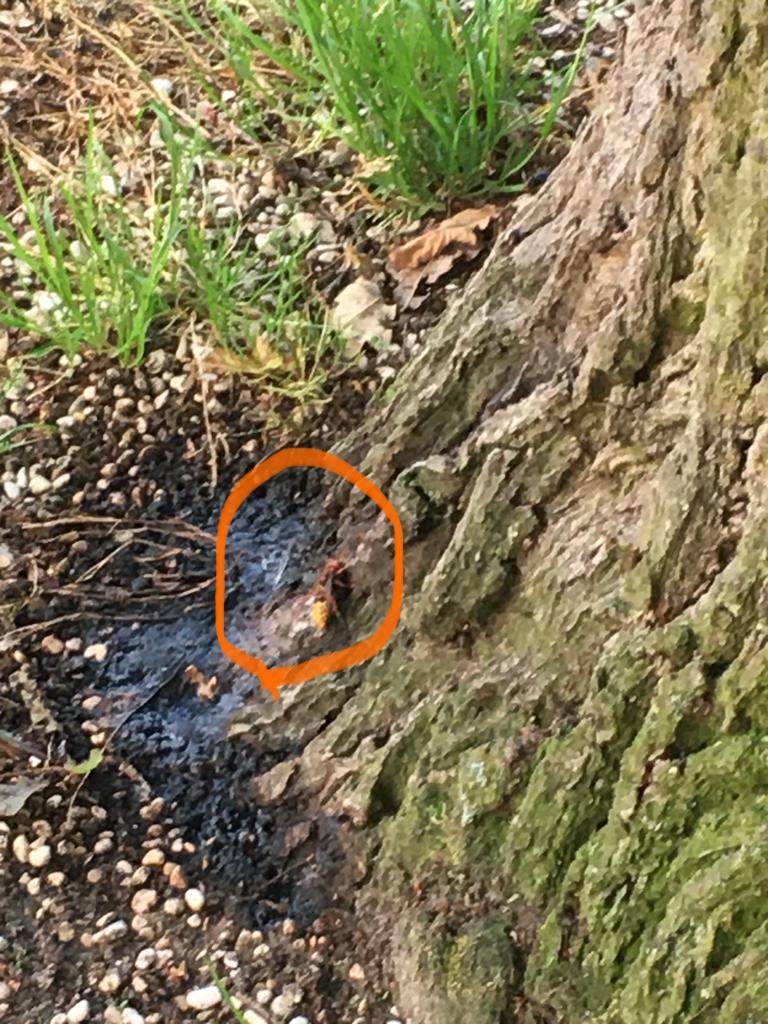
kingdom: Animalia
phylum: Arthropoda
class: Insecta
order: Hymenoptera
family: Vespidae
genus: Vespa
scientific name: Vespa crabro
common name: Hornet
